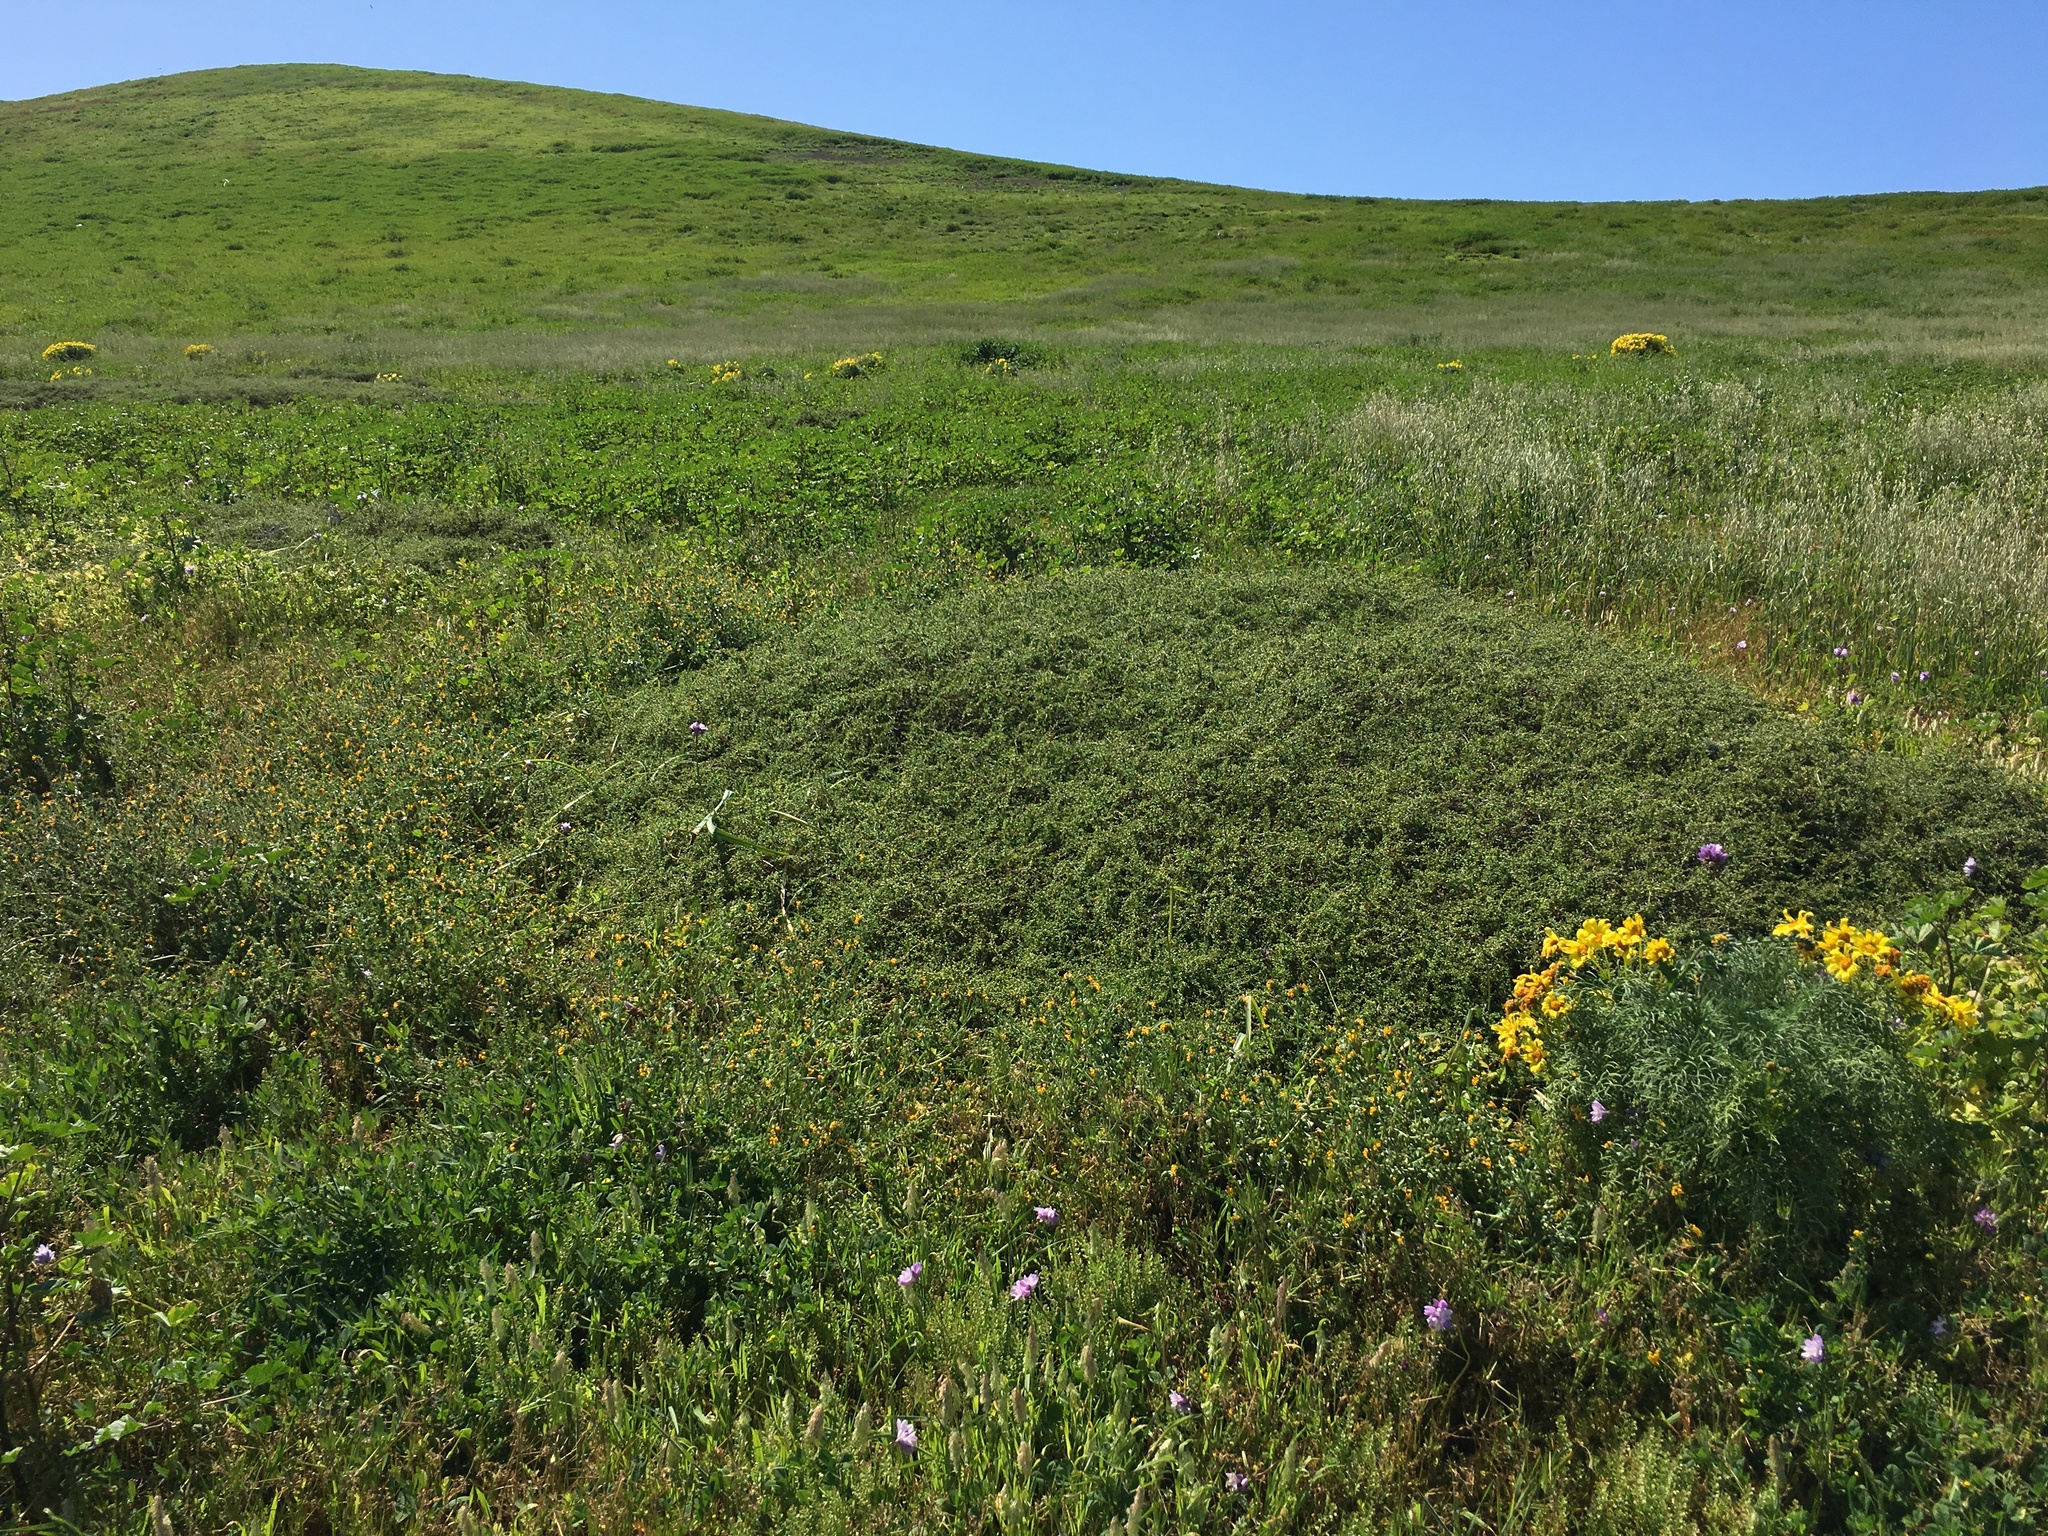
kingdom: Plantae
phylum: Tracheophyta
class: Magnoliopsida
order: Solanales
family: Solanaceae
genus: Lycium
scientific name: Lycium californicum
